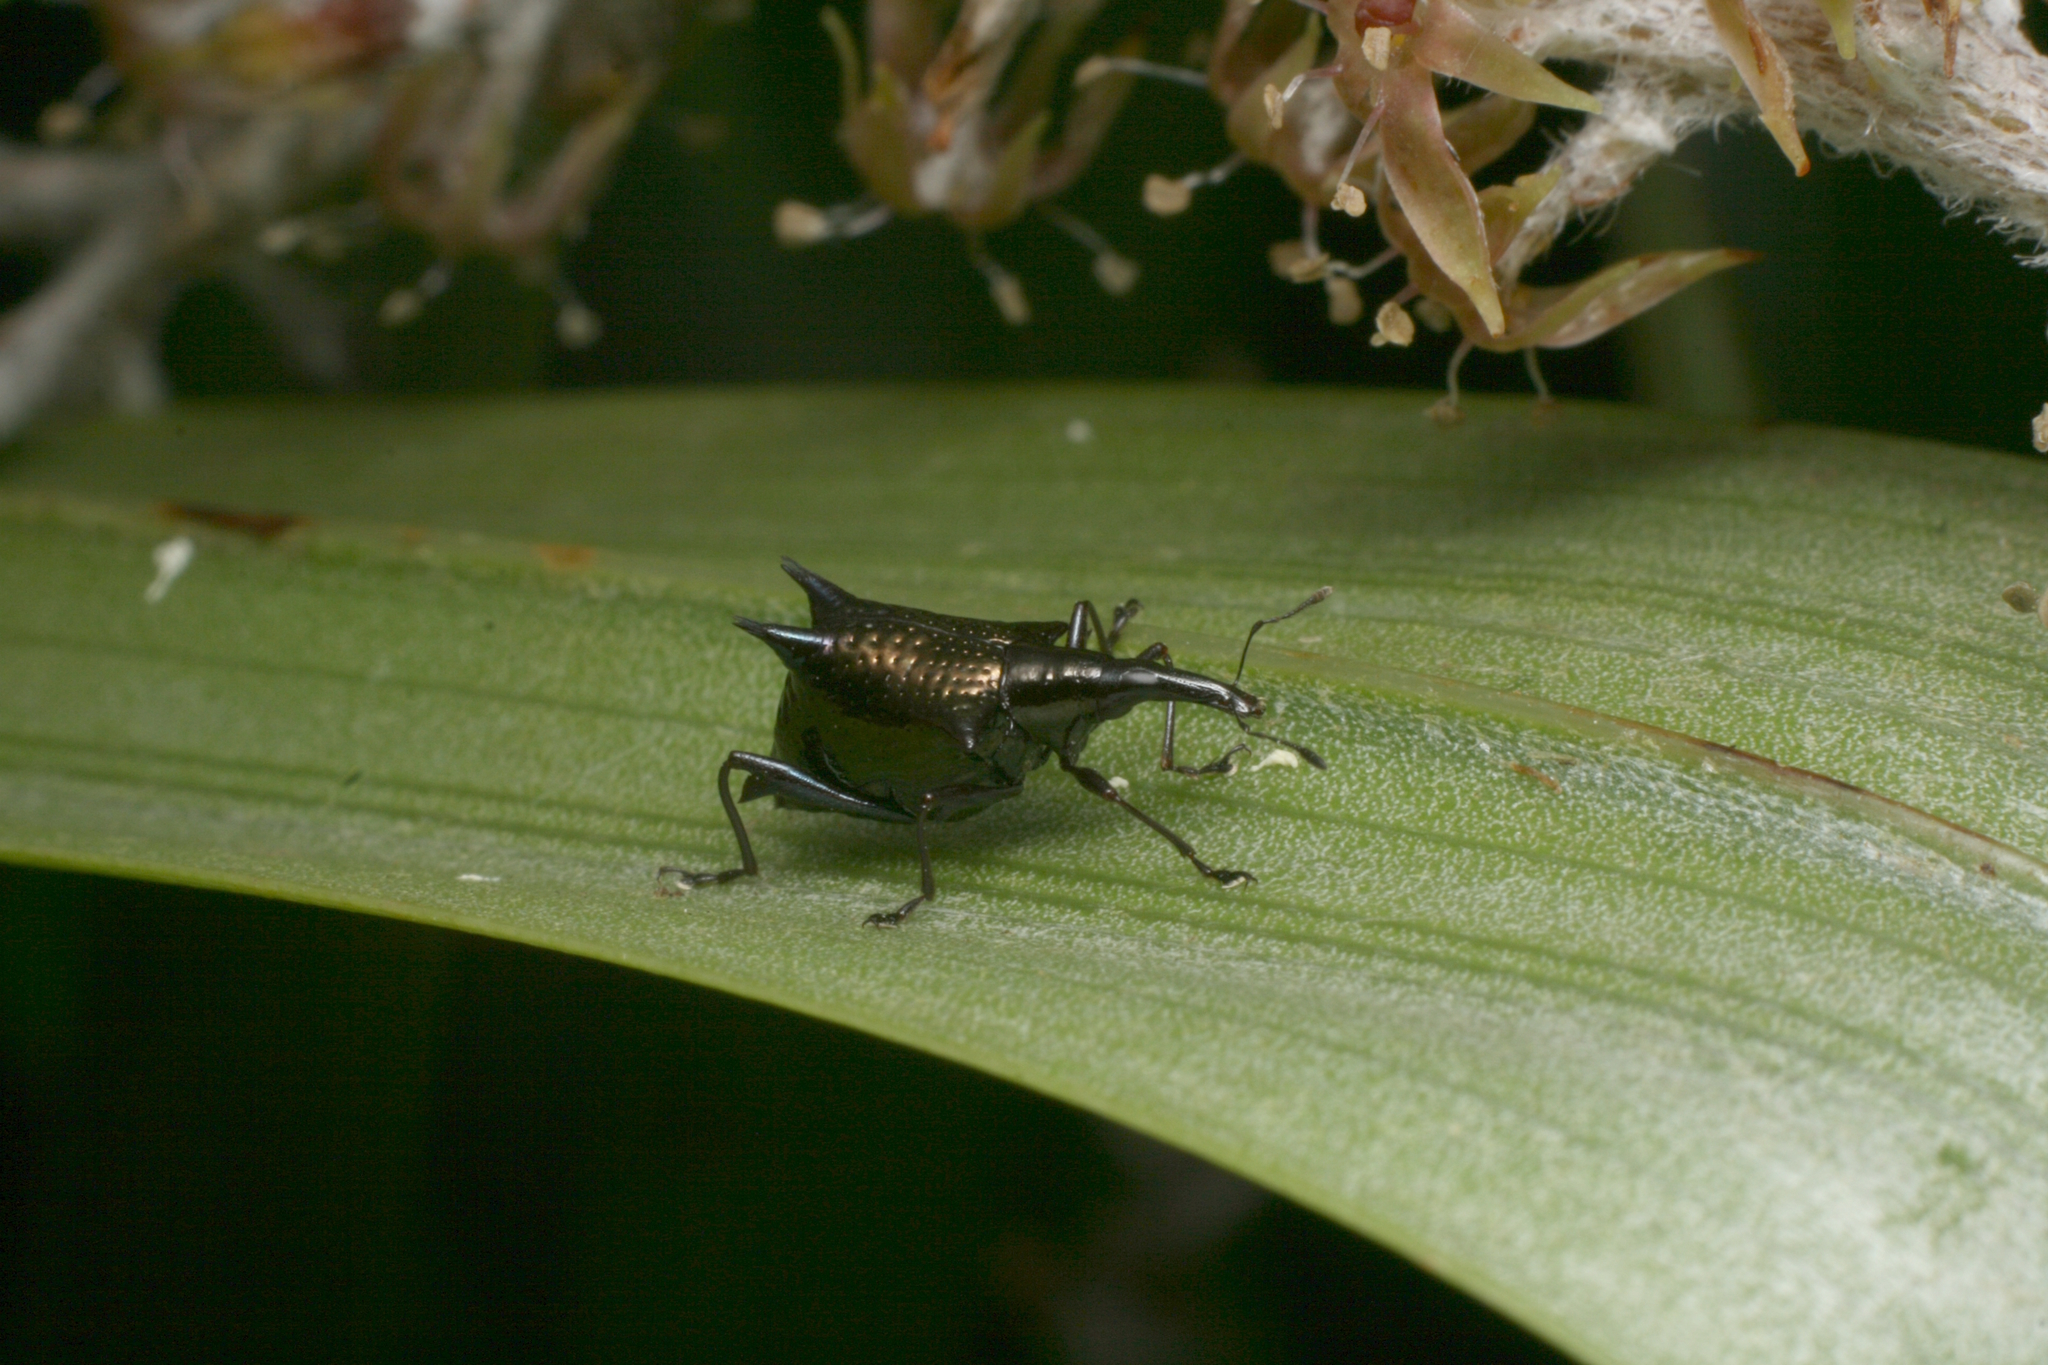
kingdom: Animalia
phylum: Arthropoda
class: Insecta
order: Coleoptera
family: Curculionidae
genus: Scolopterus
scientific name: Scolopterus aequus
